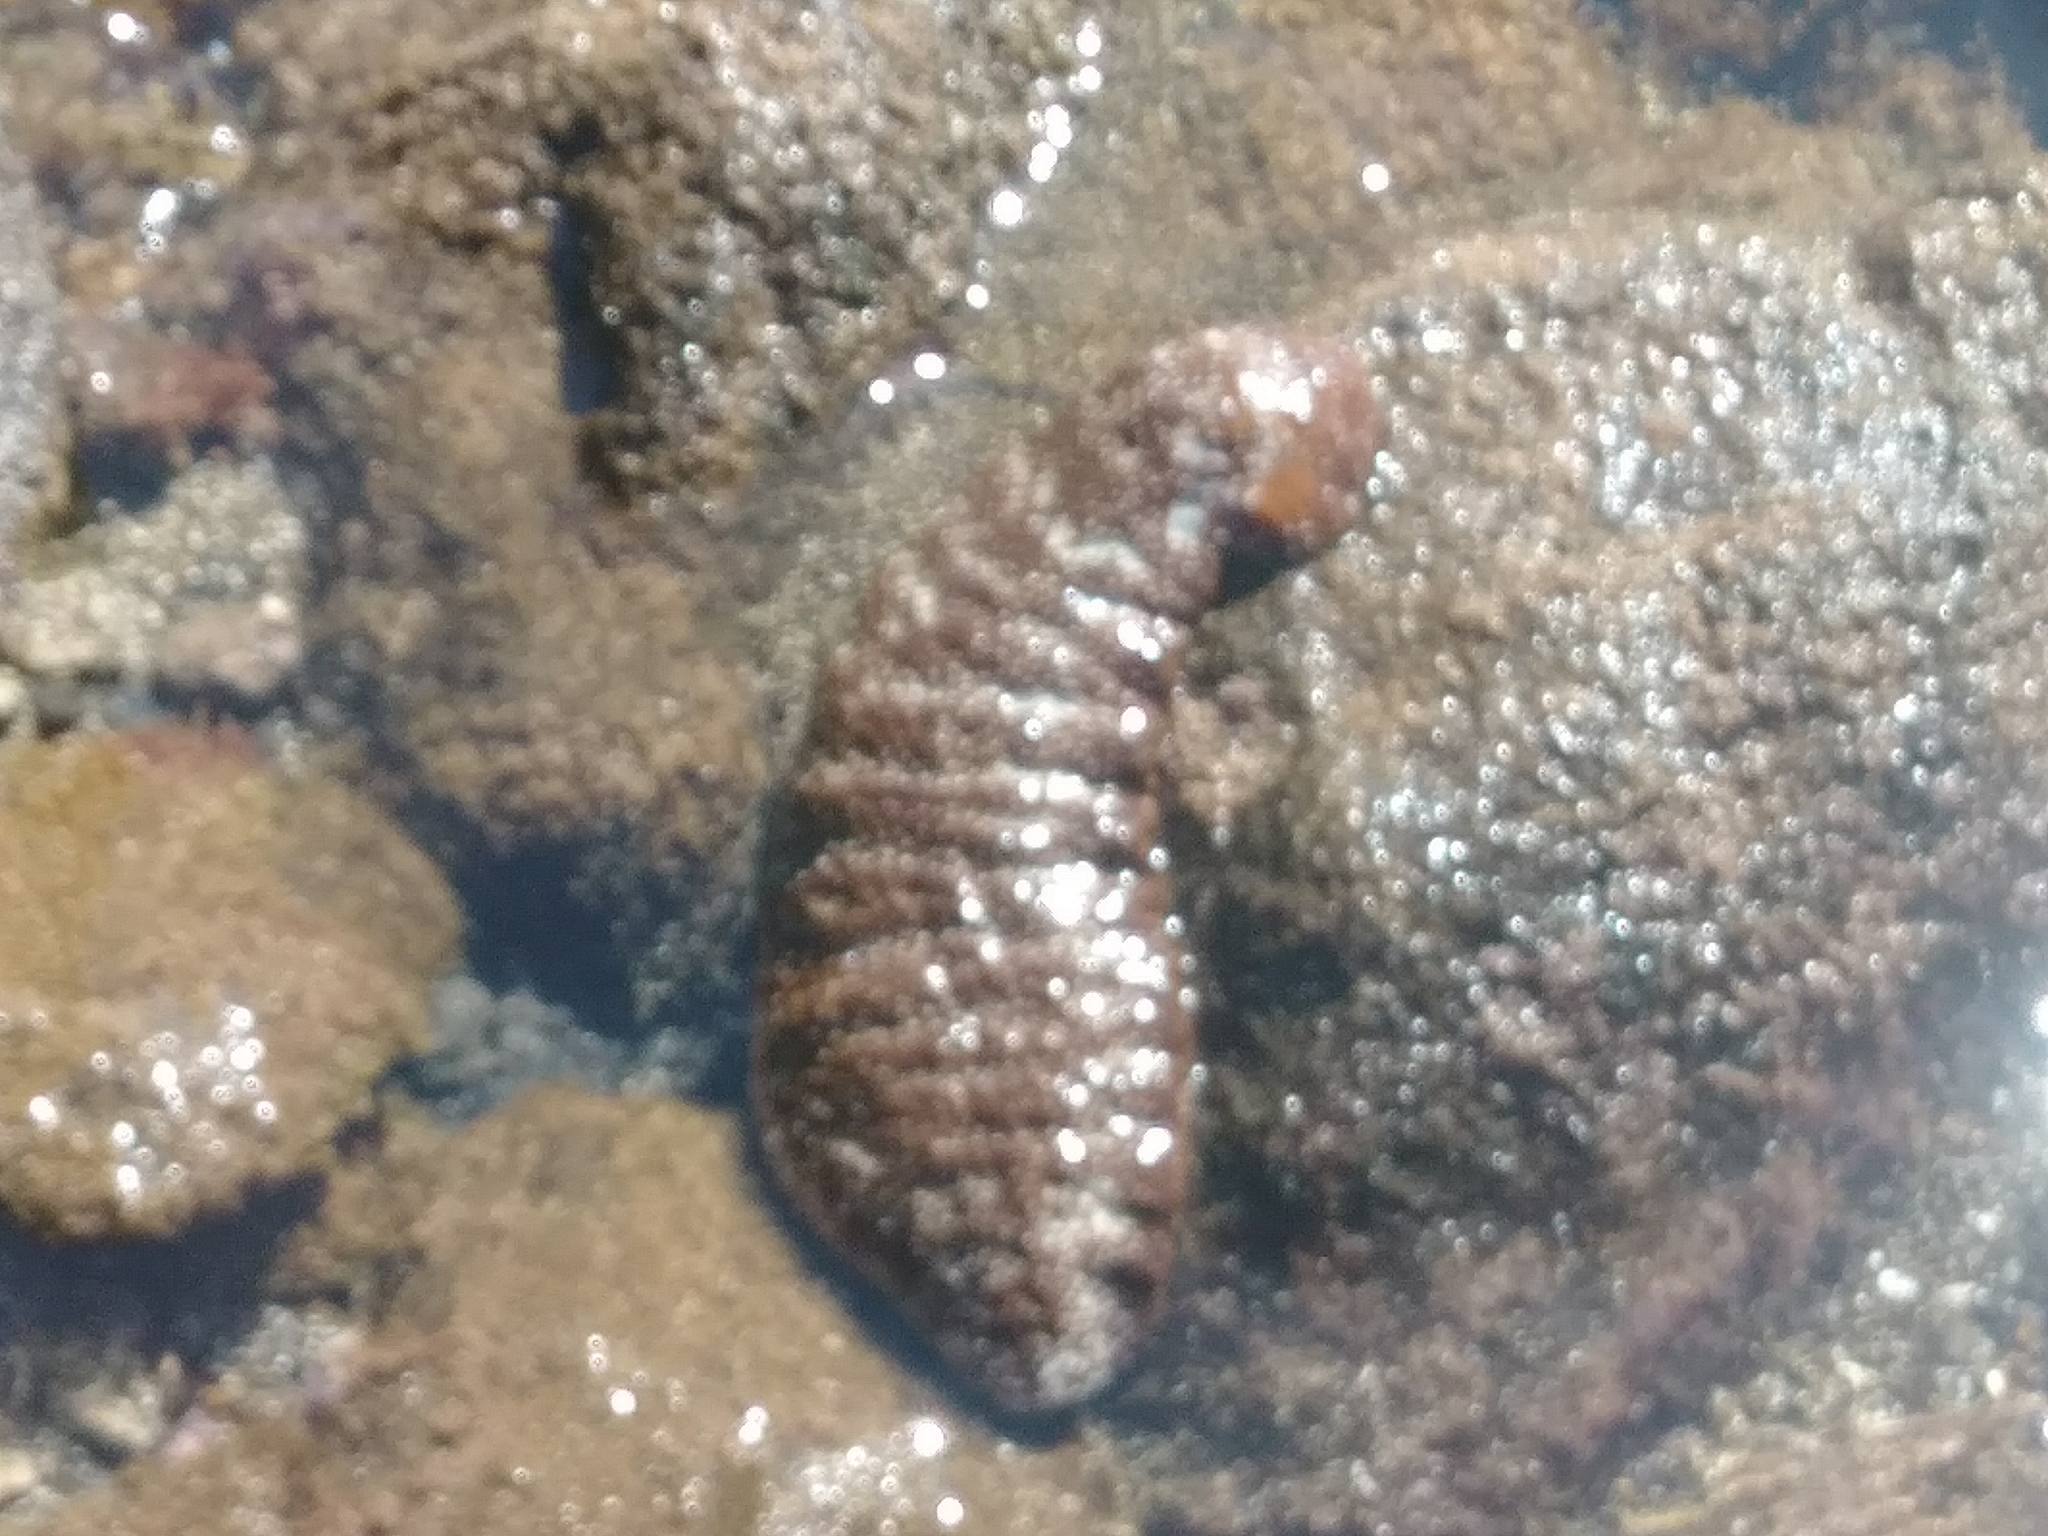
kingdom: Animalia
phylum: Echinodermata
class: Holothuroidea
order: Holothuriida
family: Holothuriidae
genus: Actinopyga
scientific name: Actinopyga varians
